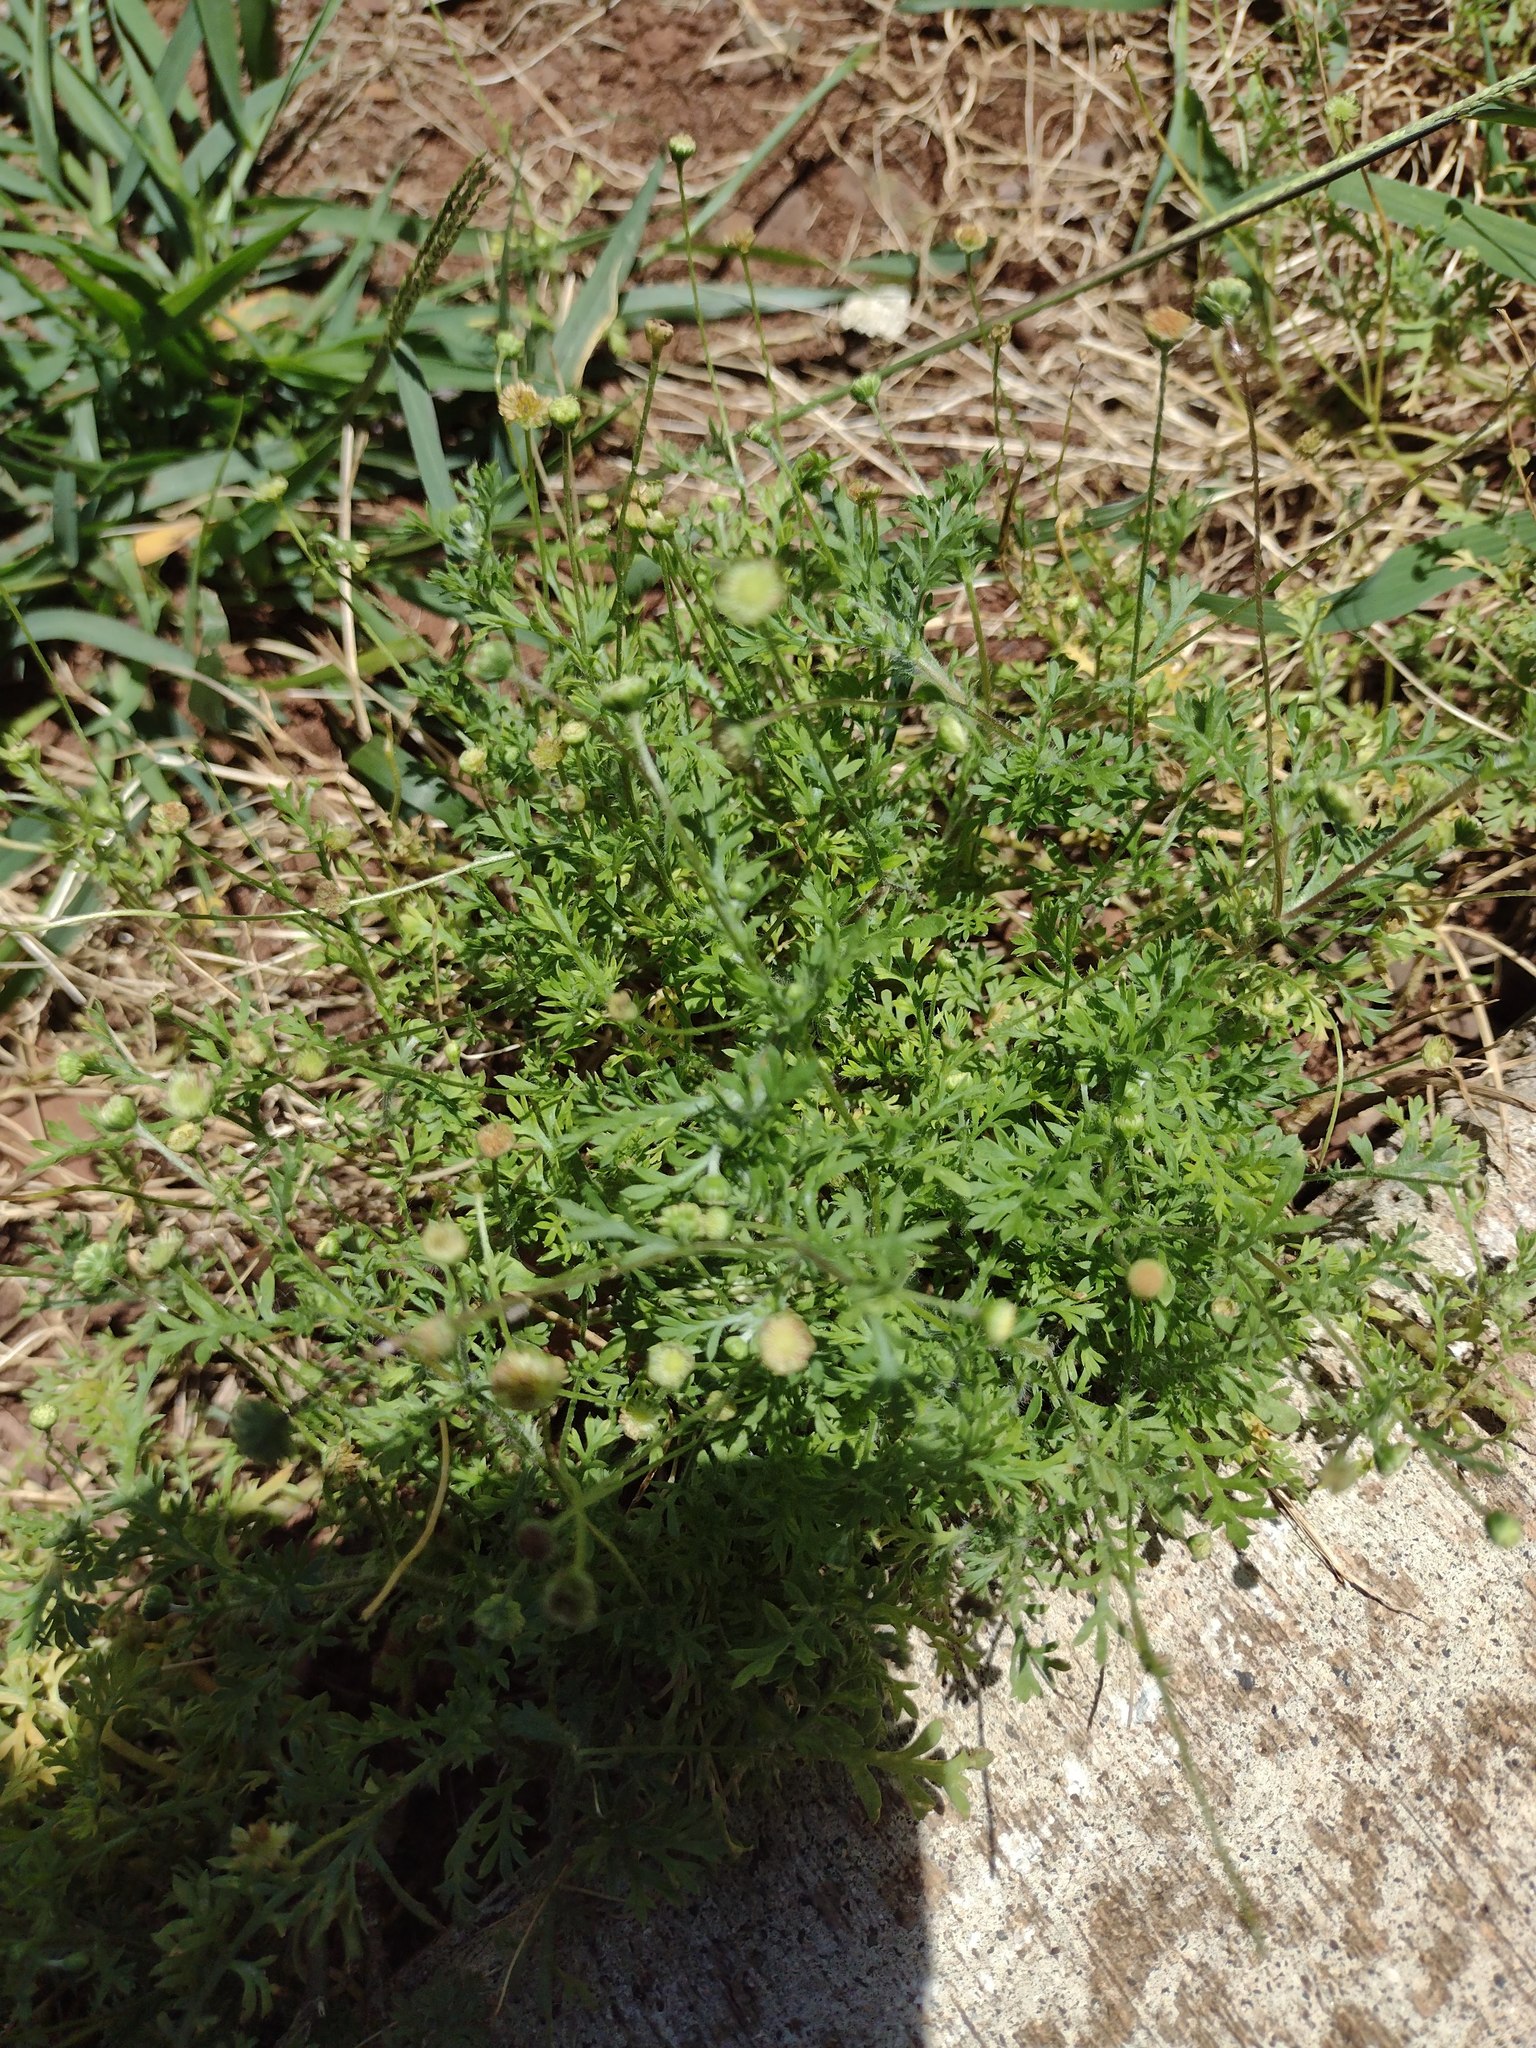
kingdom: Plantae
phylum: Tracheophyta
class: Magnoliopsida
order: Asterales
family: Asteraceae
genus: Cotula
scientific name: Cotula australis
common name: Australian waterbuttons
